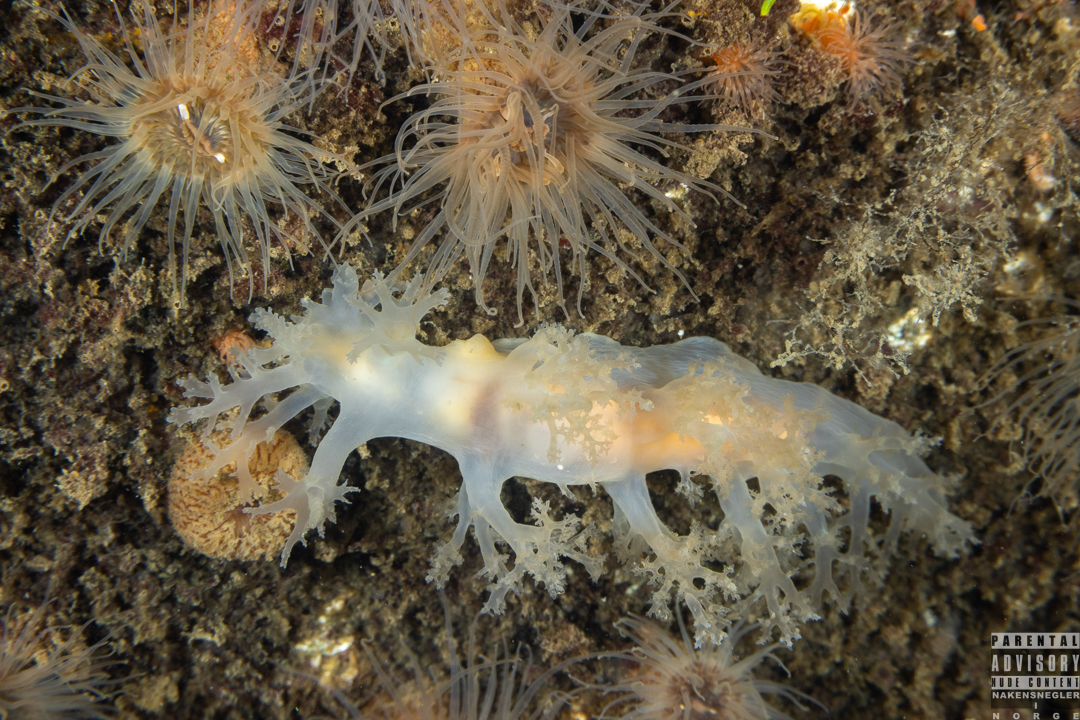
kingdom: Animalia
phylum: Mollusca
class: Gastropoda
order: Nudibranchia
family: Dendronotidae
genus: Dendronotus
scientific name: Dendronotus lacteus
